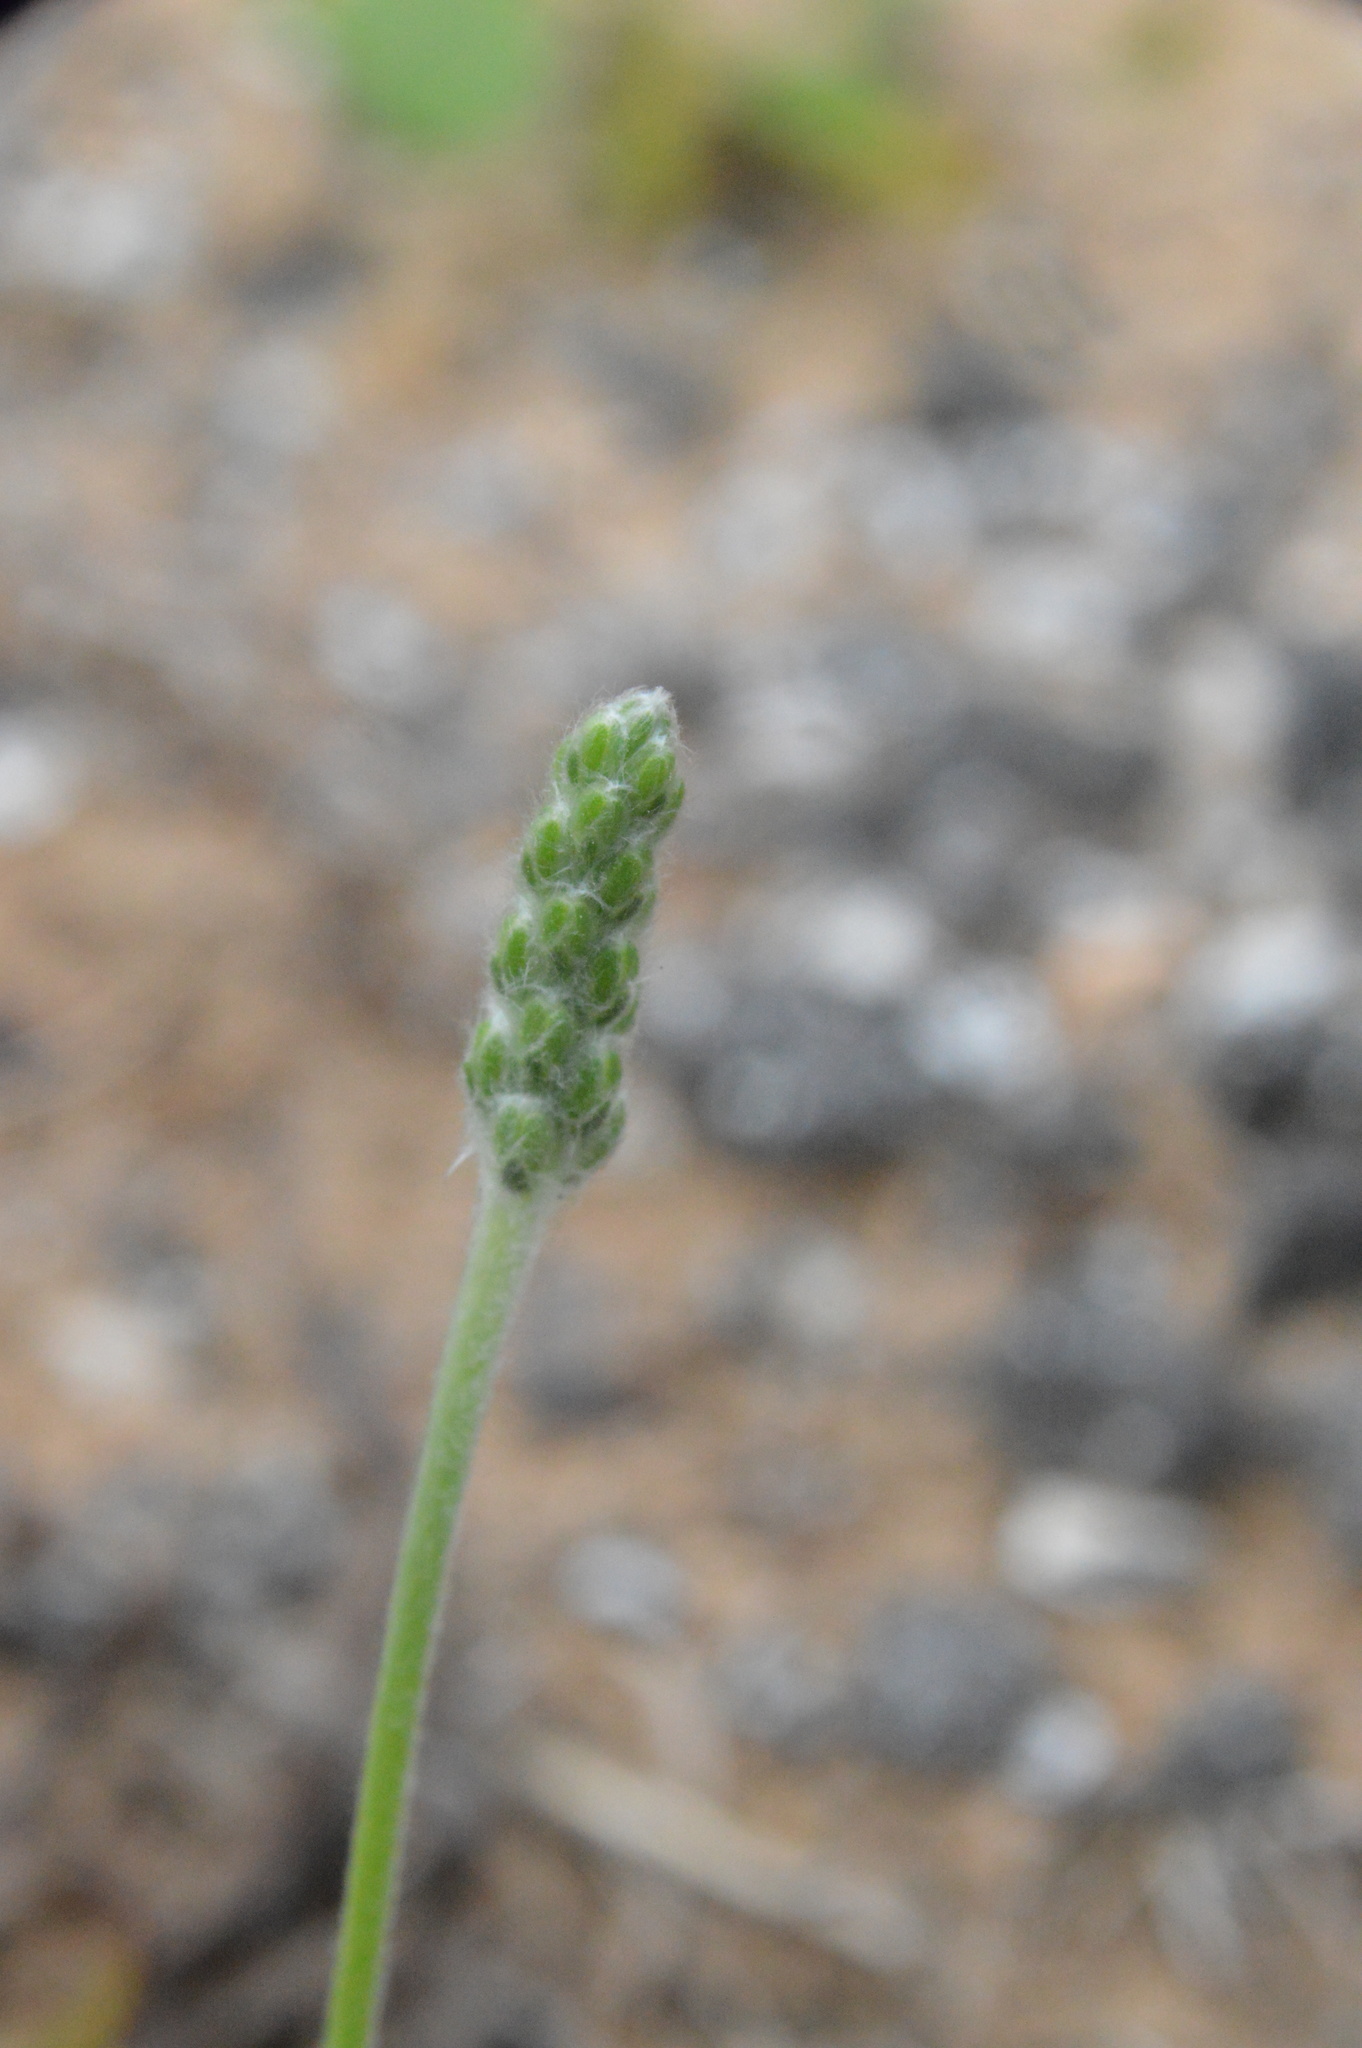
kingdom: Plantae
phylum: Tracheophyta
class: Magnoliopsida
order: Lamiales
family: Plantaginaceae
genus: Plantago
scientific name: Plantago hookeriana
